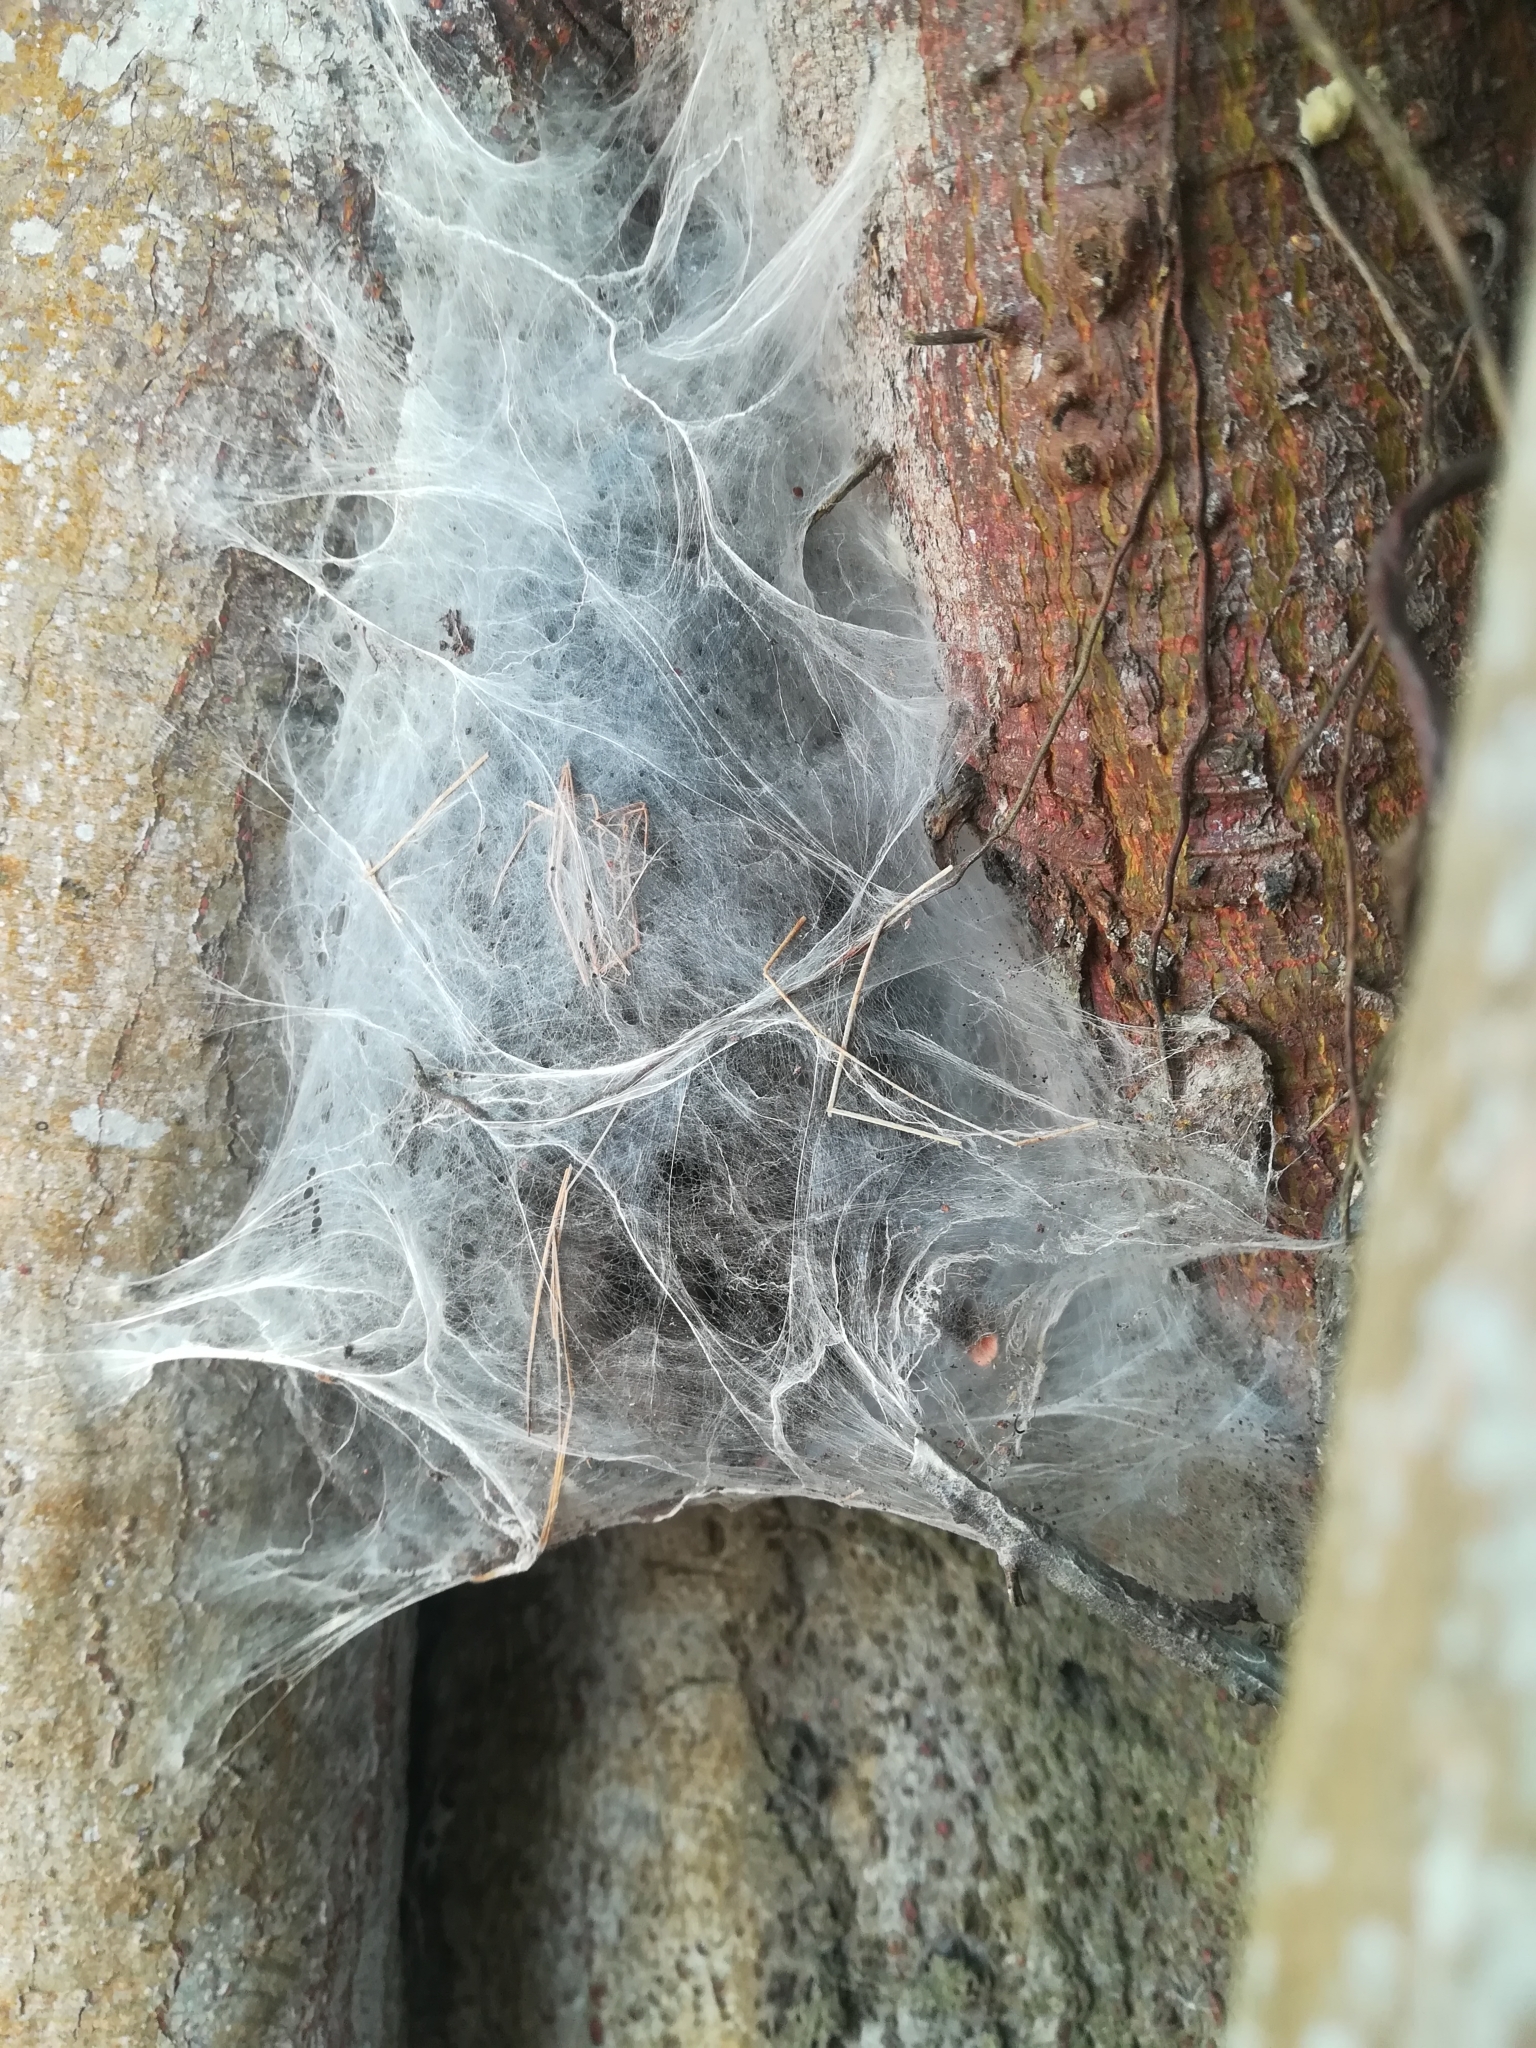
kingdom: Animalia
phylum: Arthropoda
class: Arachnida
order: Araneae
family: Theraphosidae
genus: Avicularia
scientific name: Avicularia avicularia
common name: Tarantula spiders
